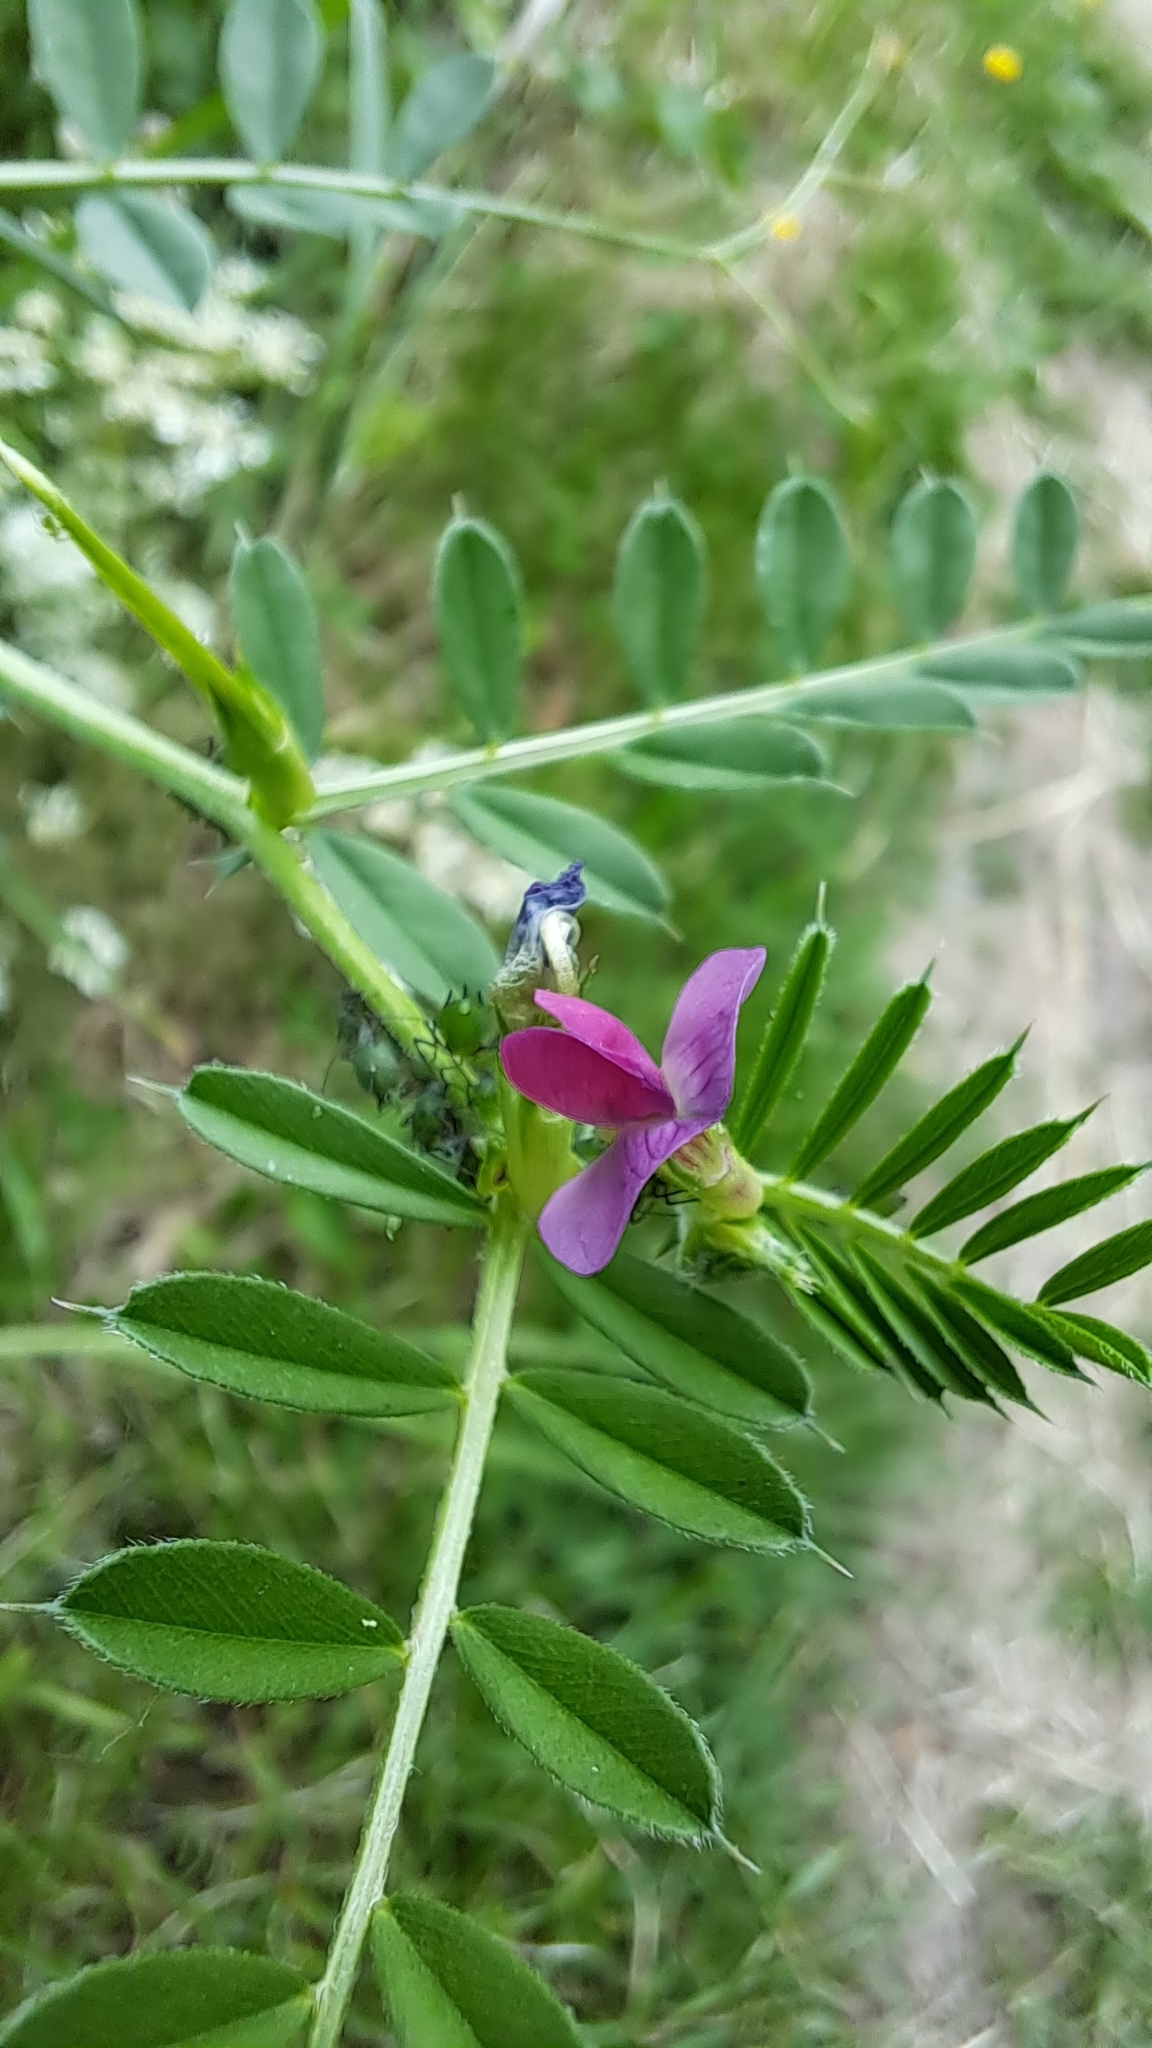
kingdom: Plantae
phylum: Tracheophyta
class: Magnoliopsida
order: Fabales
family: Fabaceae
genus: Vicia
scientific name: Vicia sativa
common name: Garden vetch
